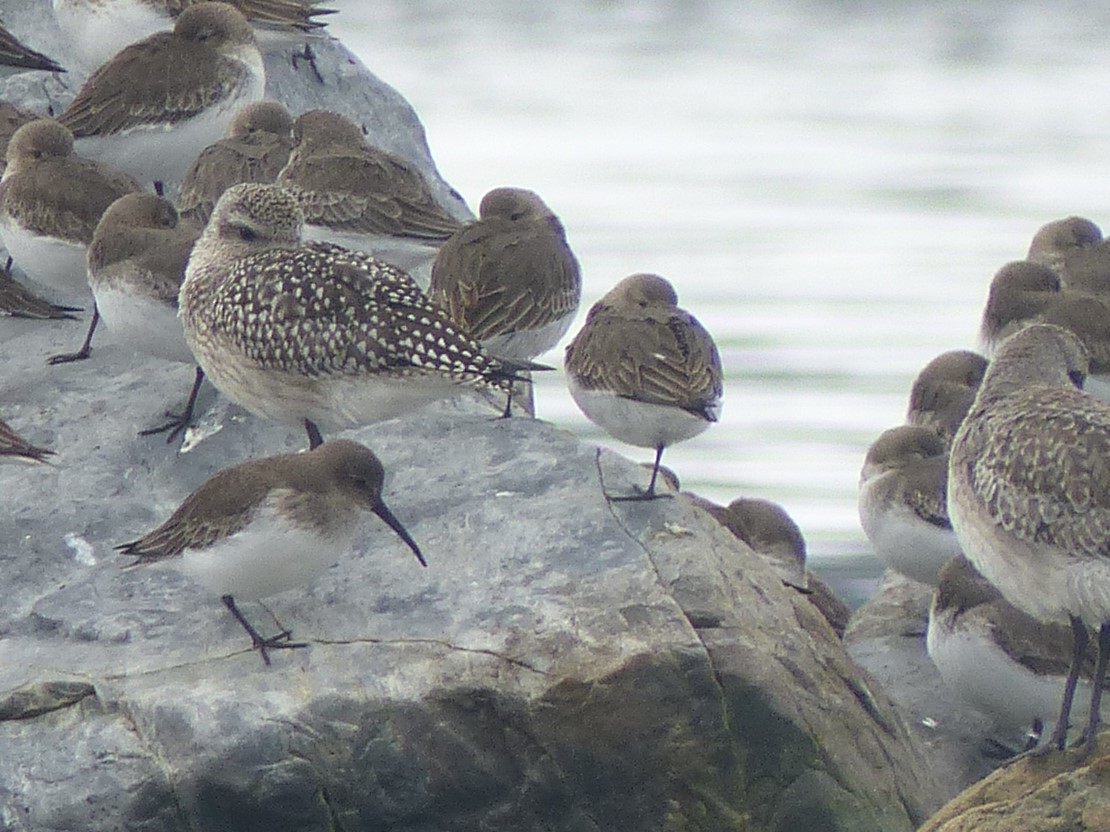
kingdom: Animalia
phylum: Chordata
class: Aves
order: Charadriiformes
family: Scolopacidae
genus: Calidris
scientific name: Calidris alpina
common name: Dunlin
